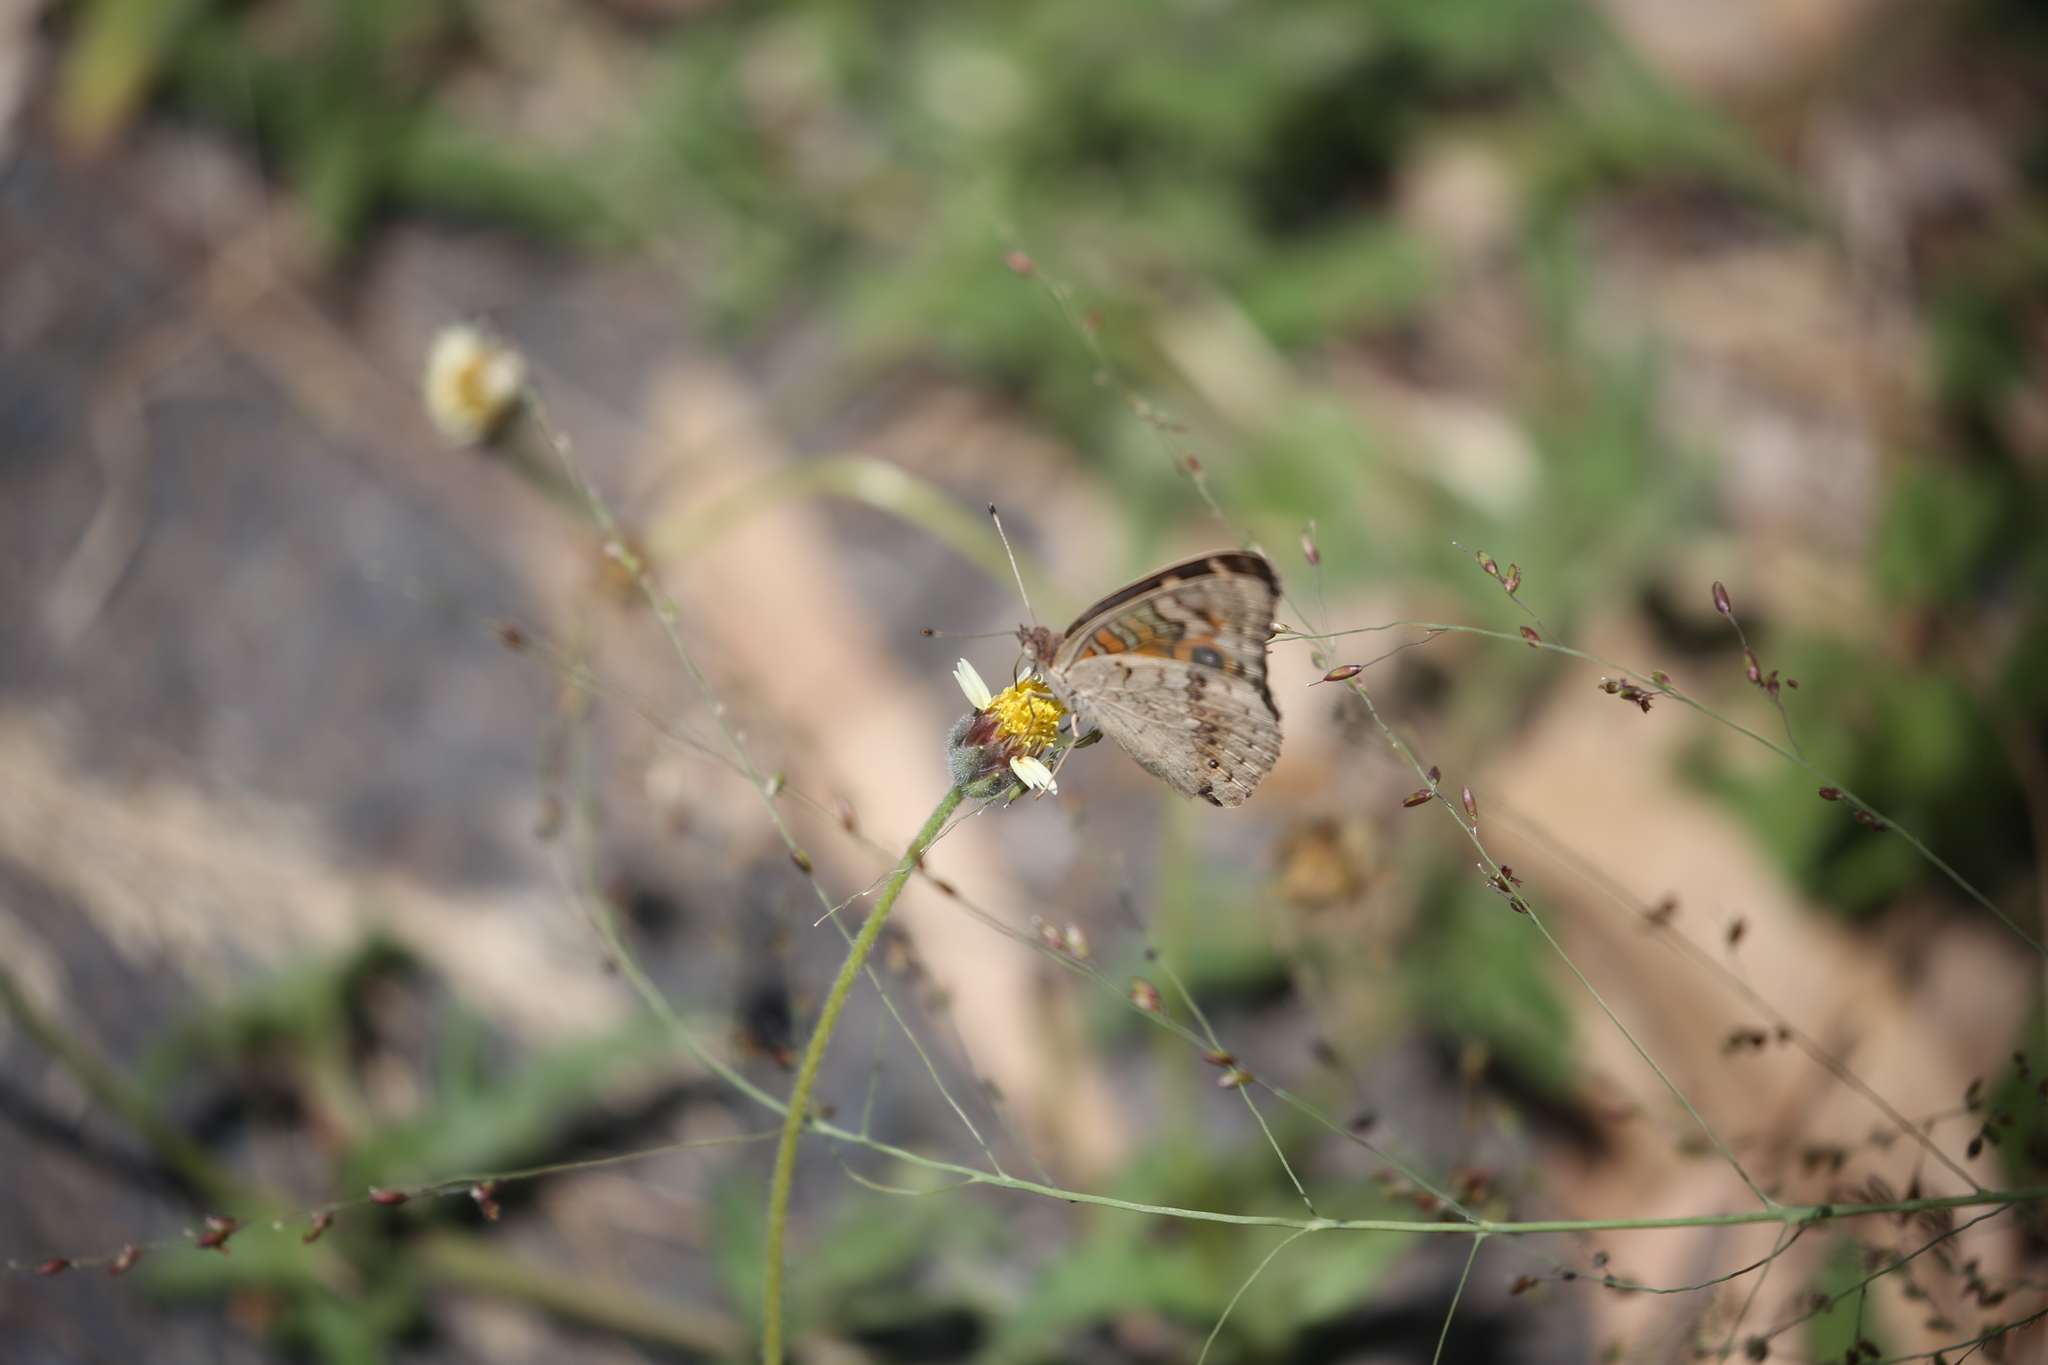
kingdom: Animalia
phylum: Arthropoda
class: Insecta
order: Lepidoptera
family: Nymphalidae
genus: Junonia
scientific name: Junonia villida
